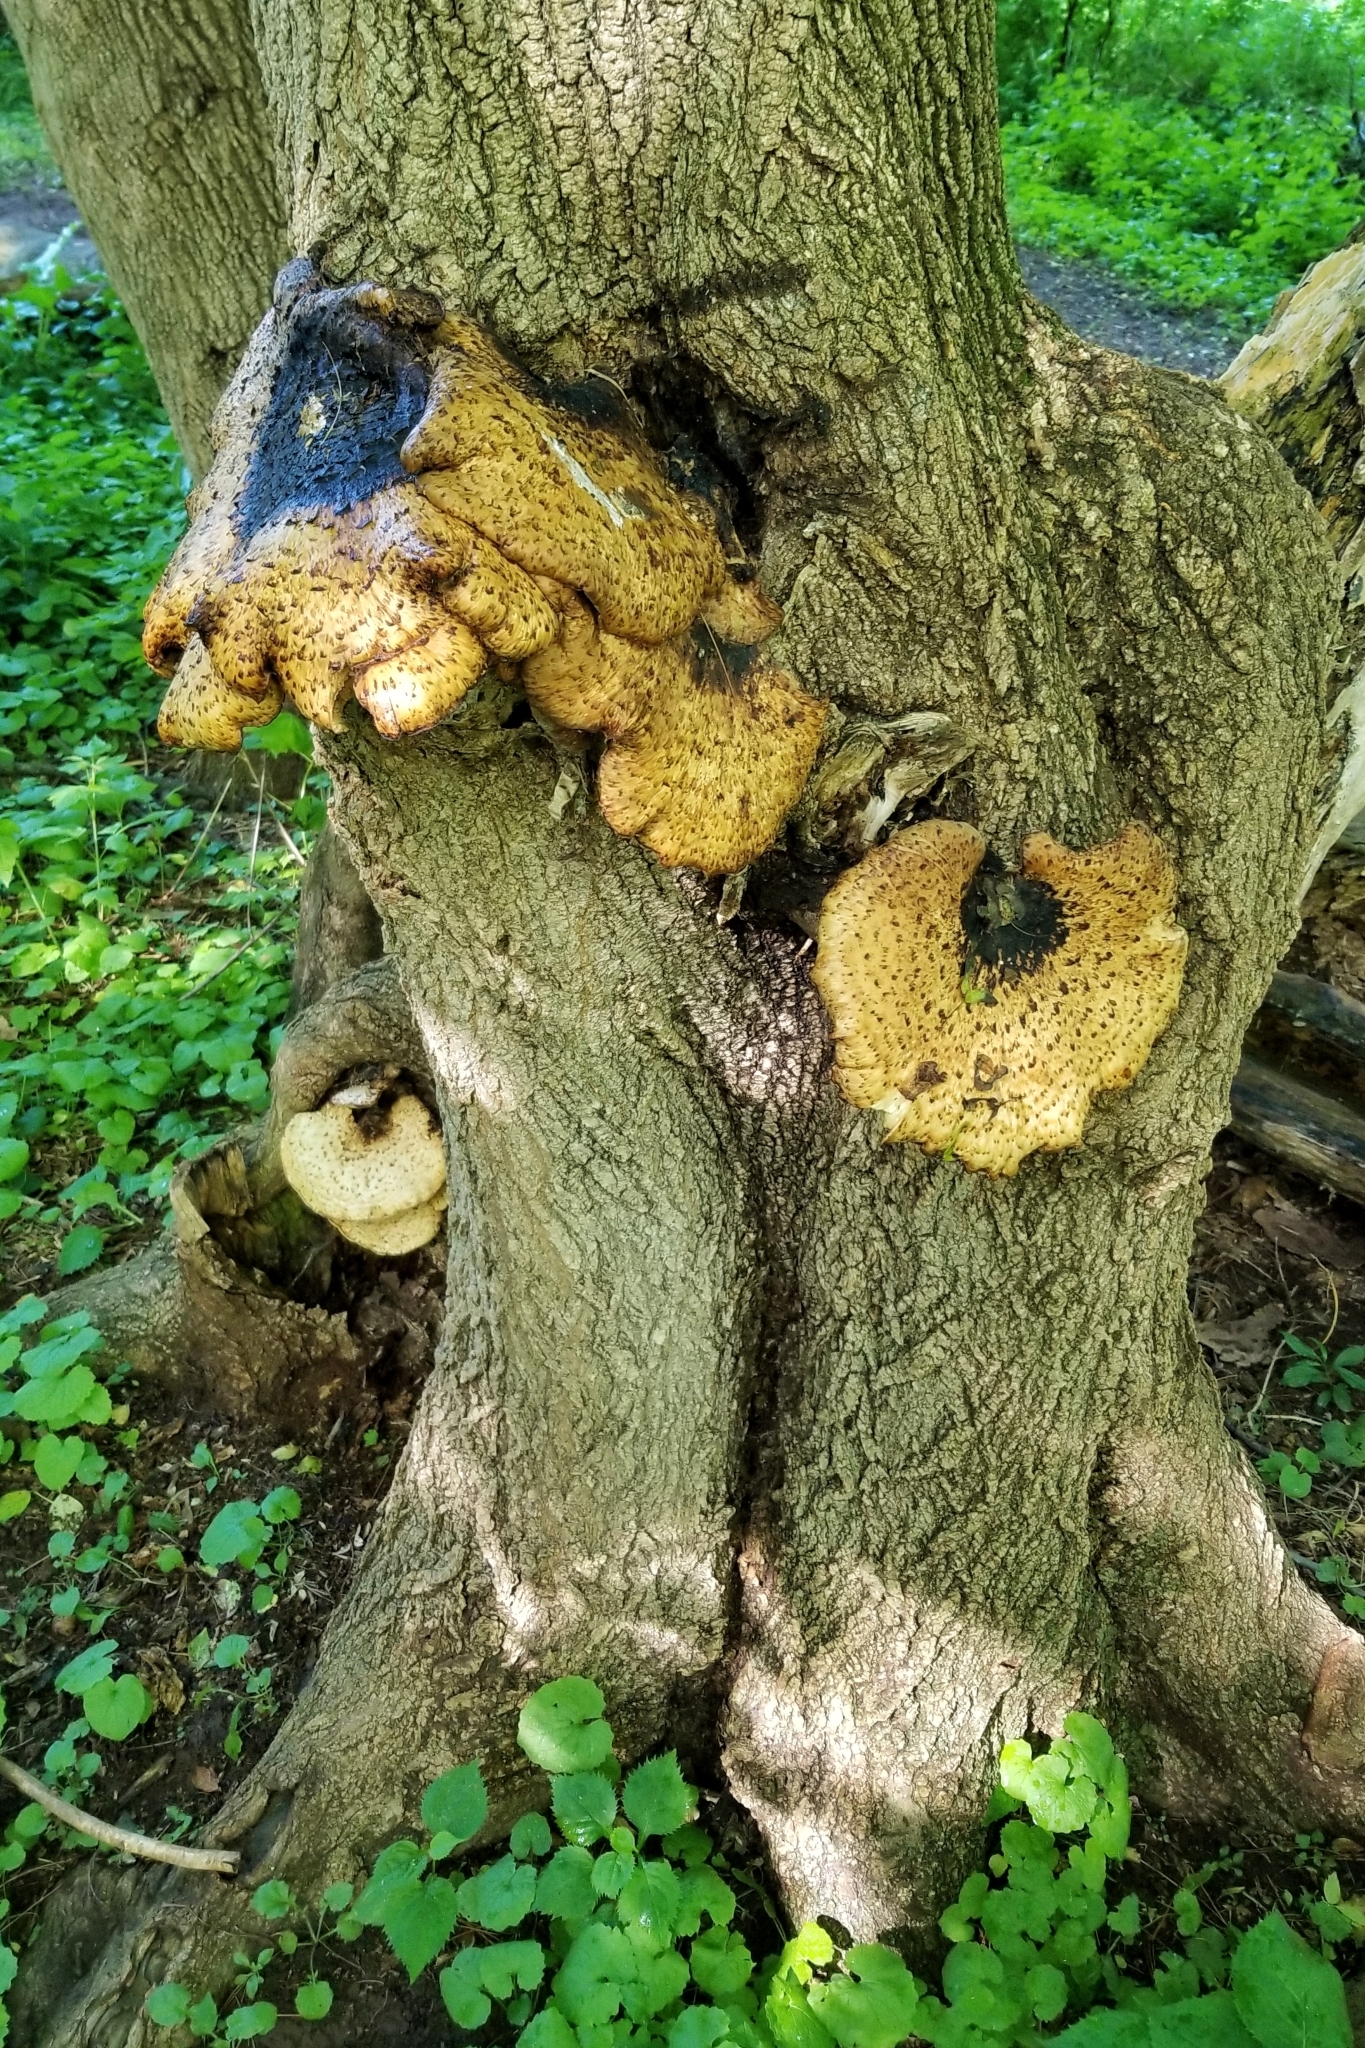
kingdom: Fungi
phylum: Basidiomycota
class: Agaricomycetes
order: Polyporales
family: Polyporaceae
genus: Cerioporus
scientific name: Cerioporus squamosus
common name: Dryad's saddle
